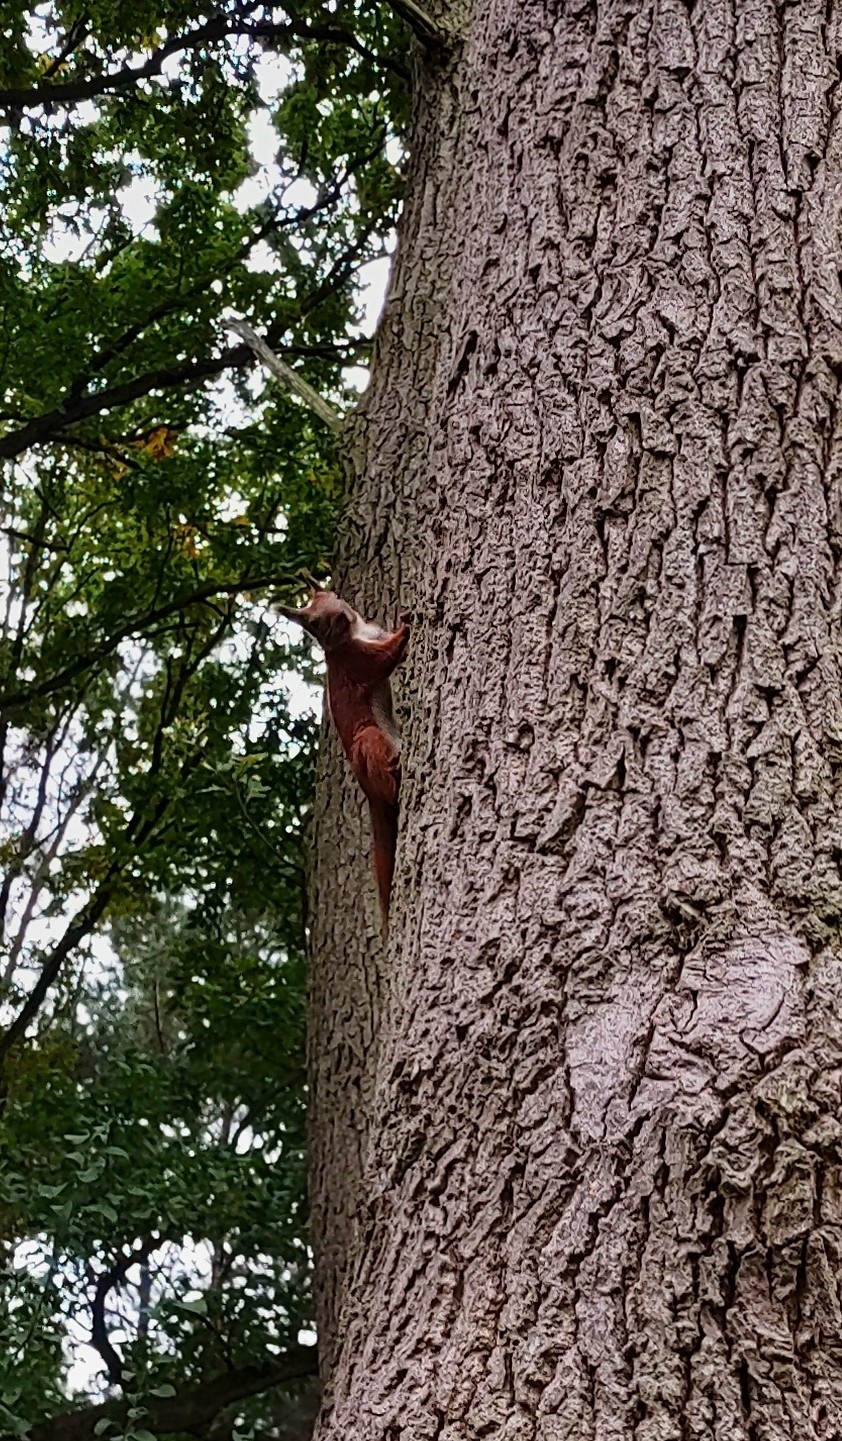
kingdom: Animalia
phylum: Chordata
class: Mammalia
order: Rodentia
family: Sciuridae
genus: Sciurus
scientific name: Sciurus vulgaris
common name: Eurasian red squirrel
